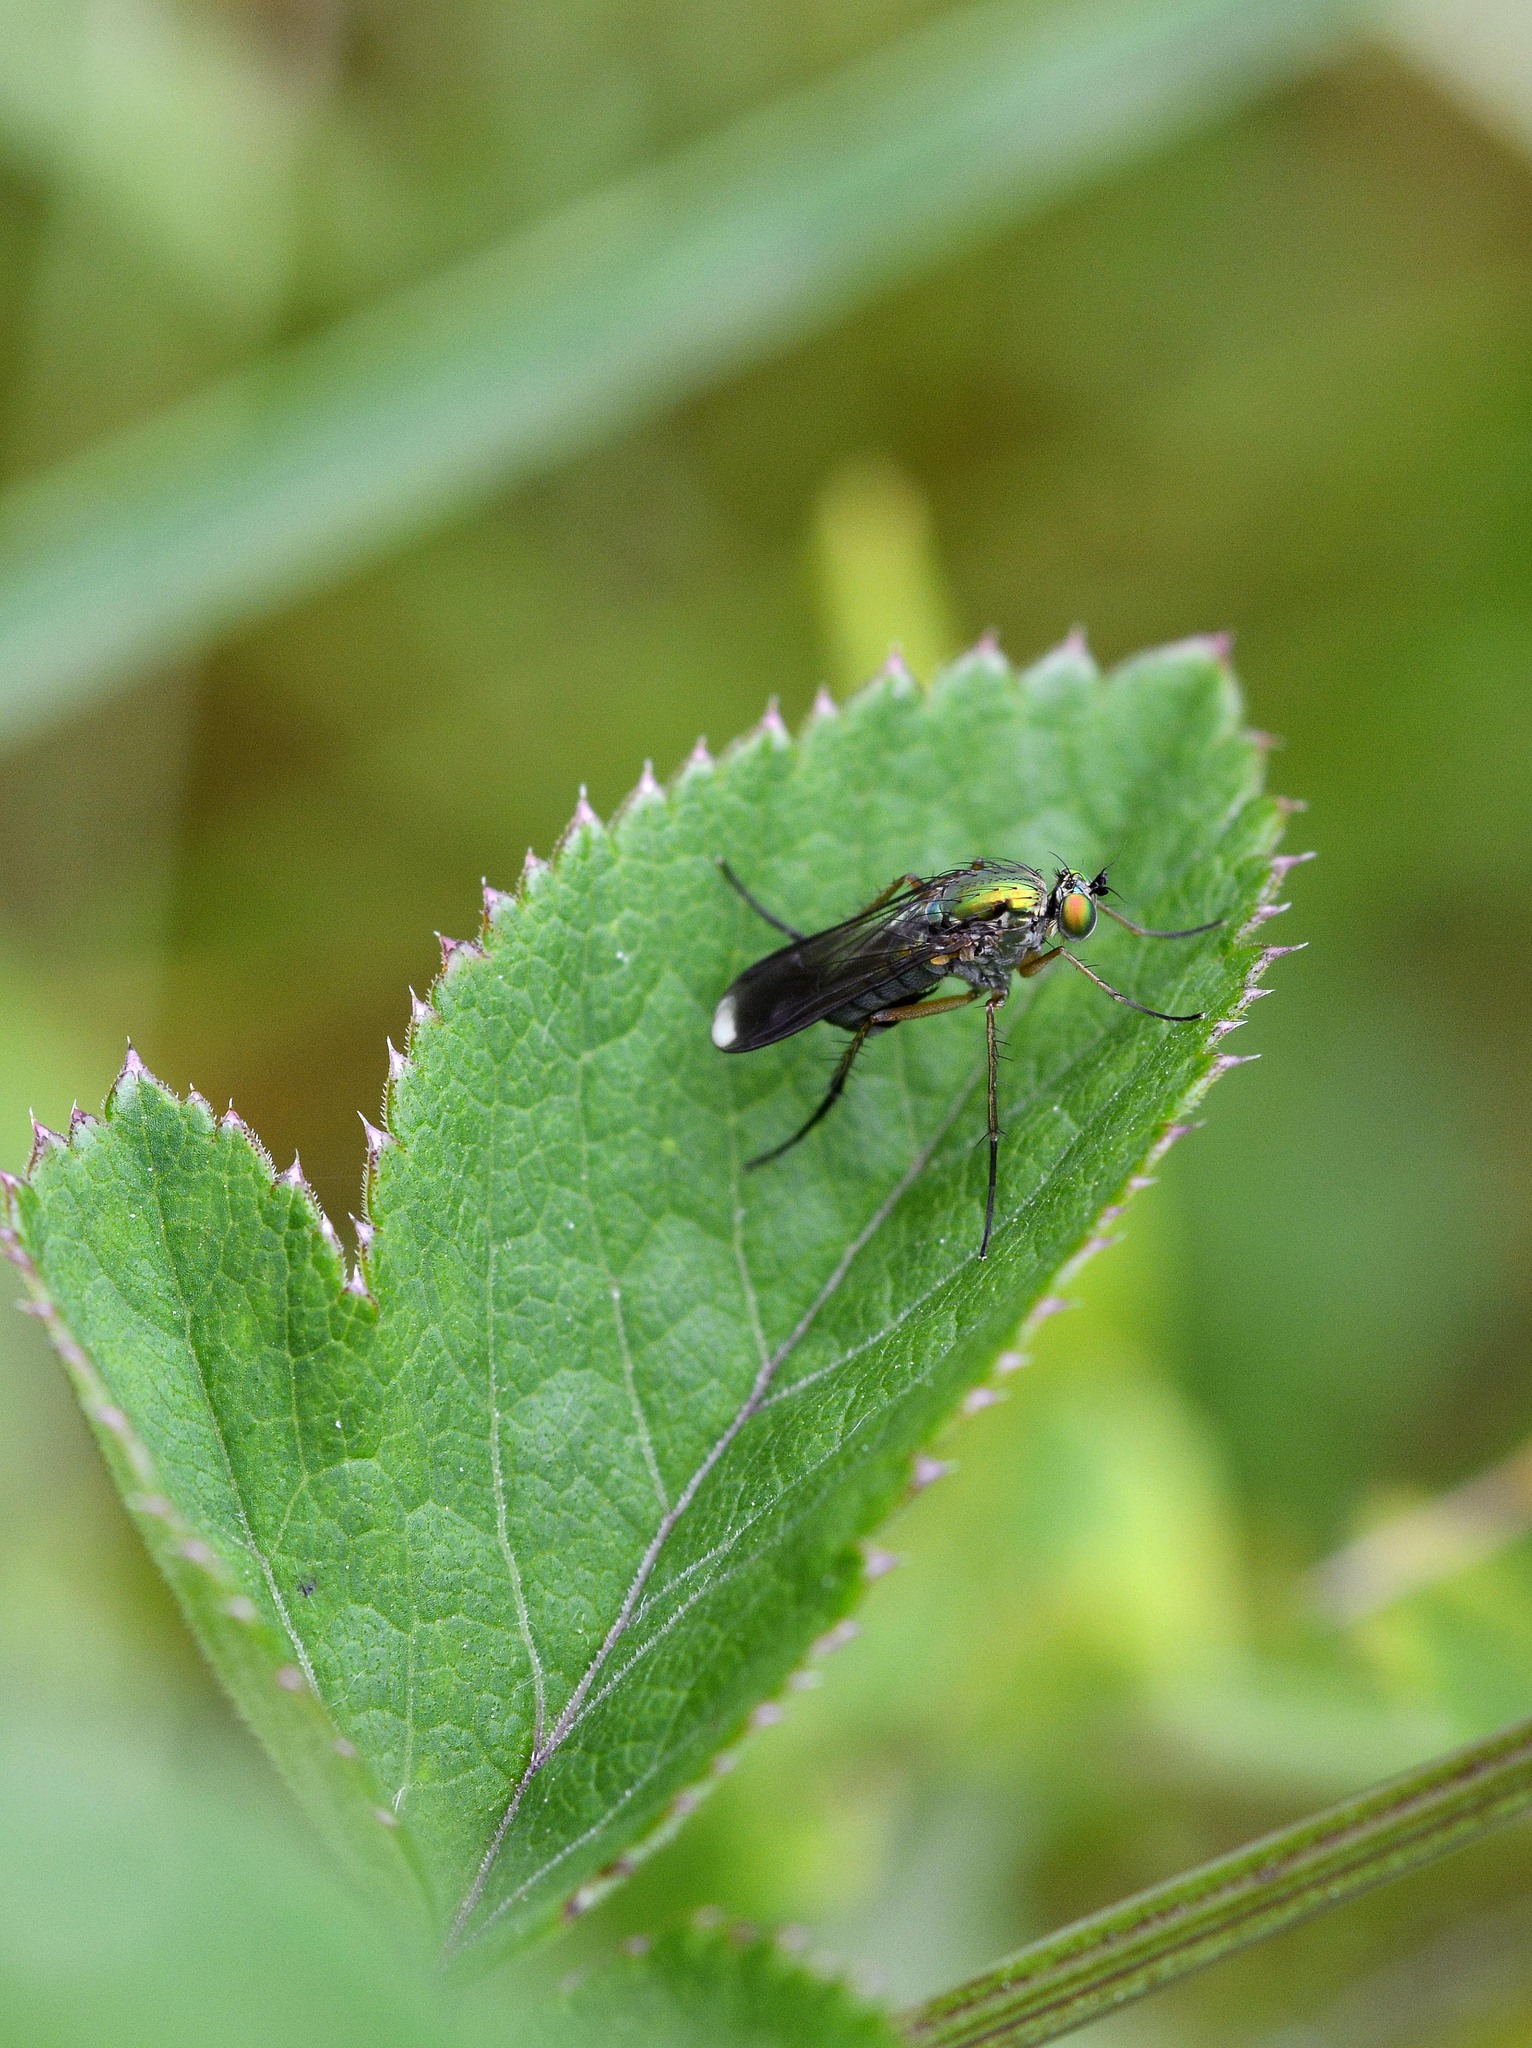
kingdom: Animalia
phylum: Arthropoda
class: Insecta
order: Diptera
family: Dolichopodidae
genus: Poecilobothrus
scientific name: Poecilobothrus nobilitatus
